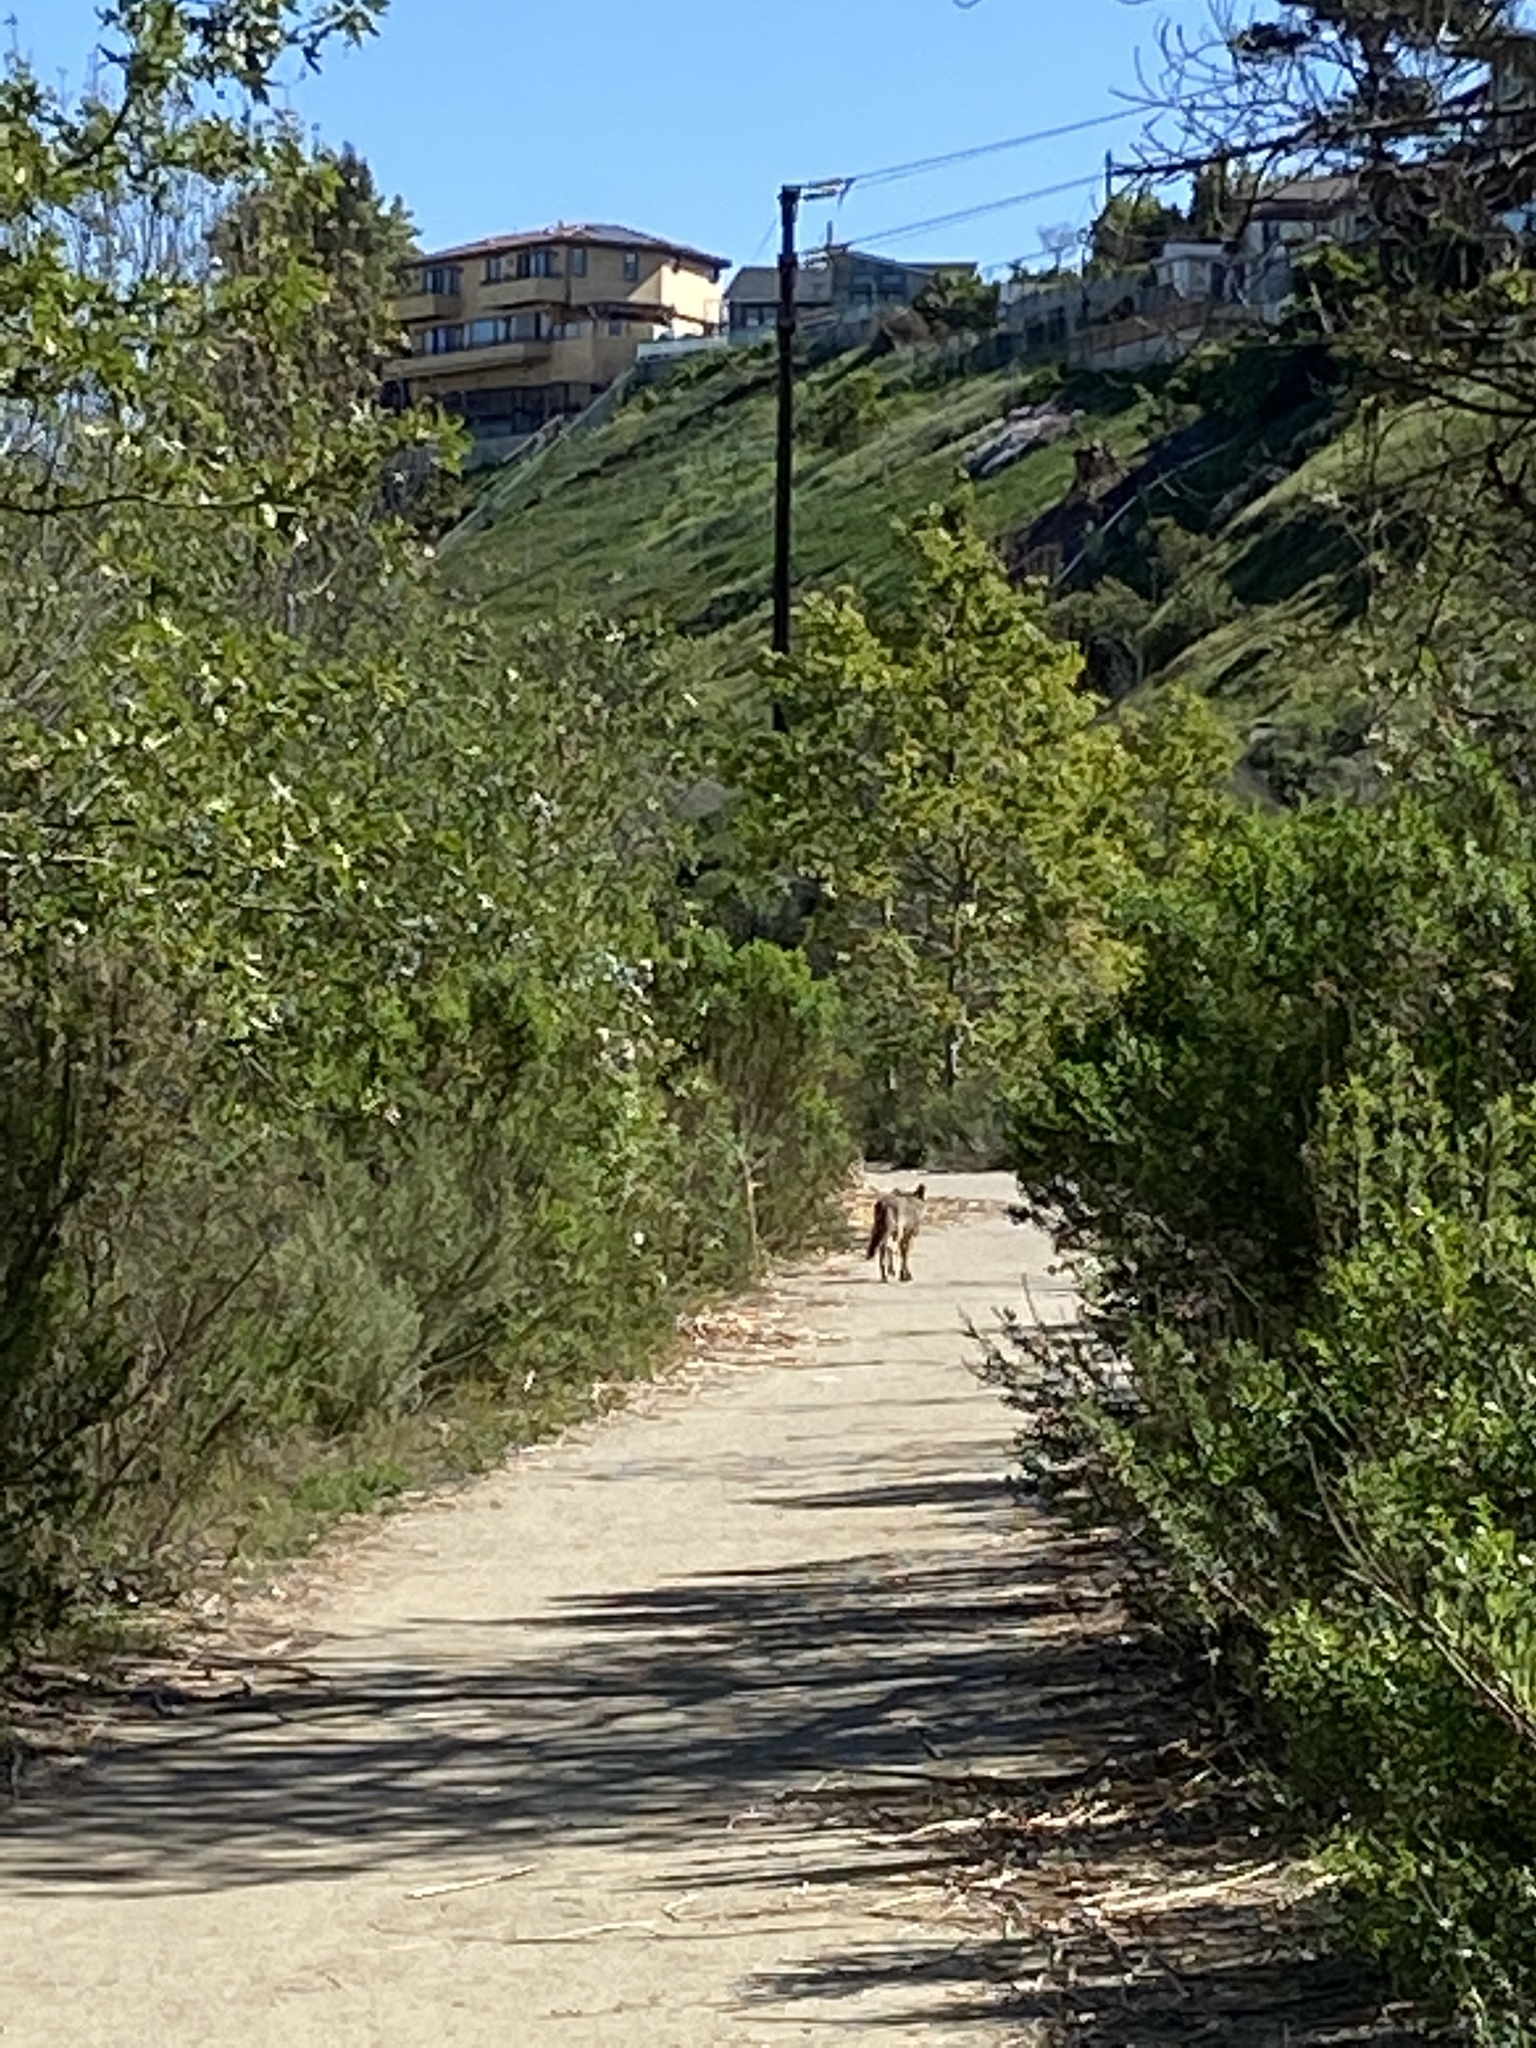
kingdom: Animalia
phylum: Chordata
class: Mammalia
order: Carnivora
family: Canidae
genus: Canis
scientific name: Canis latrans
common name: Coyote
